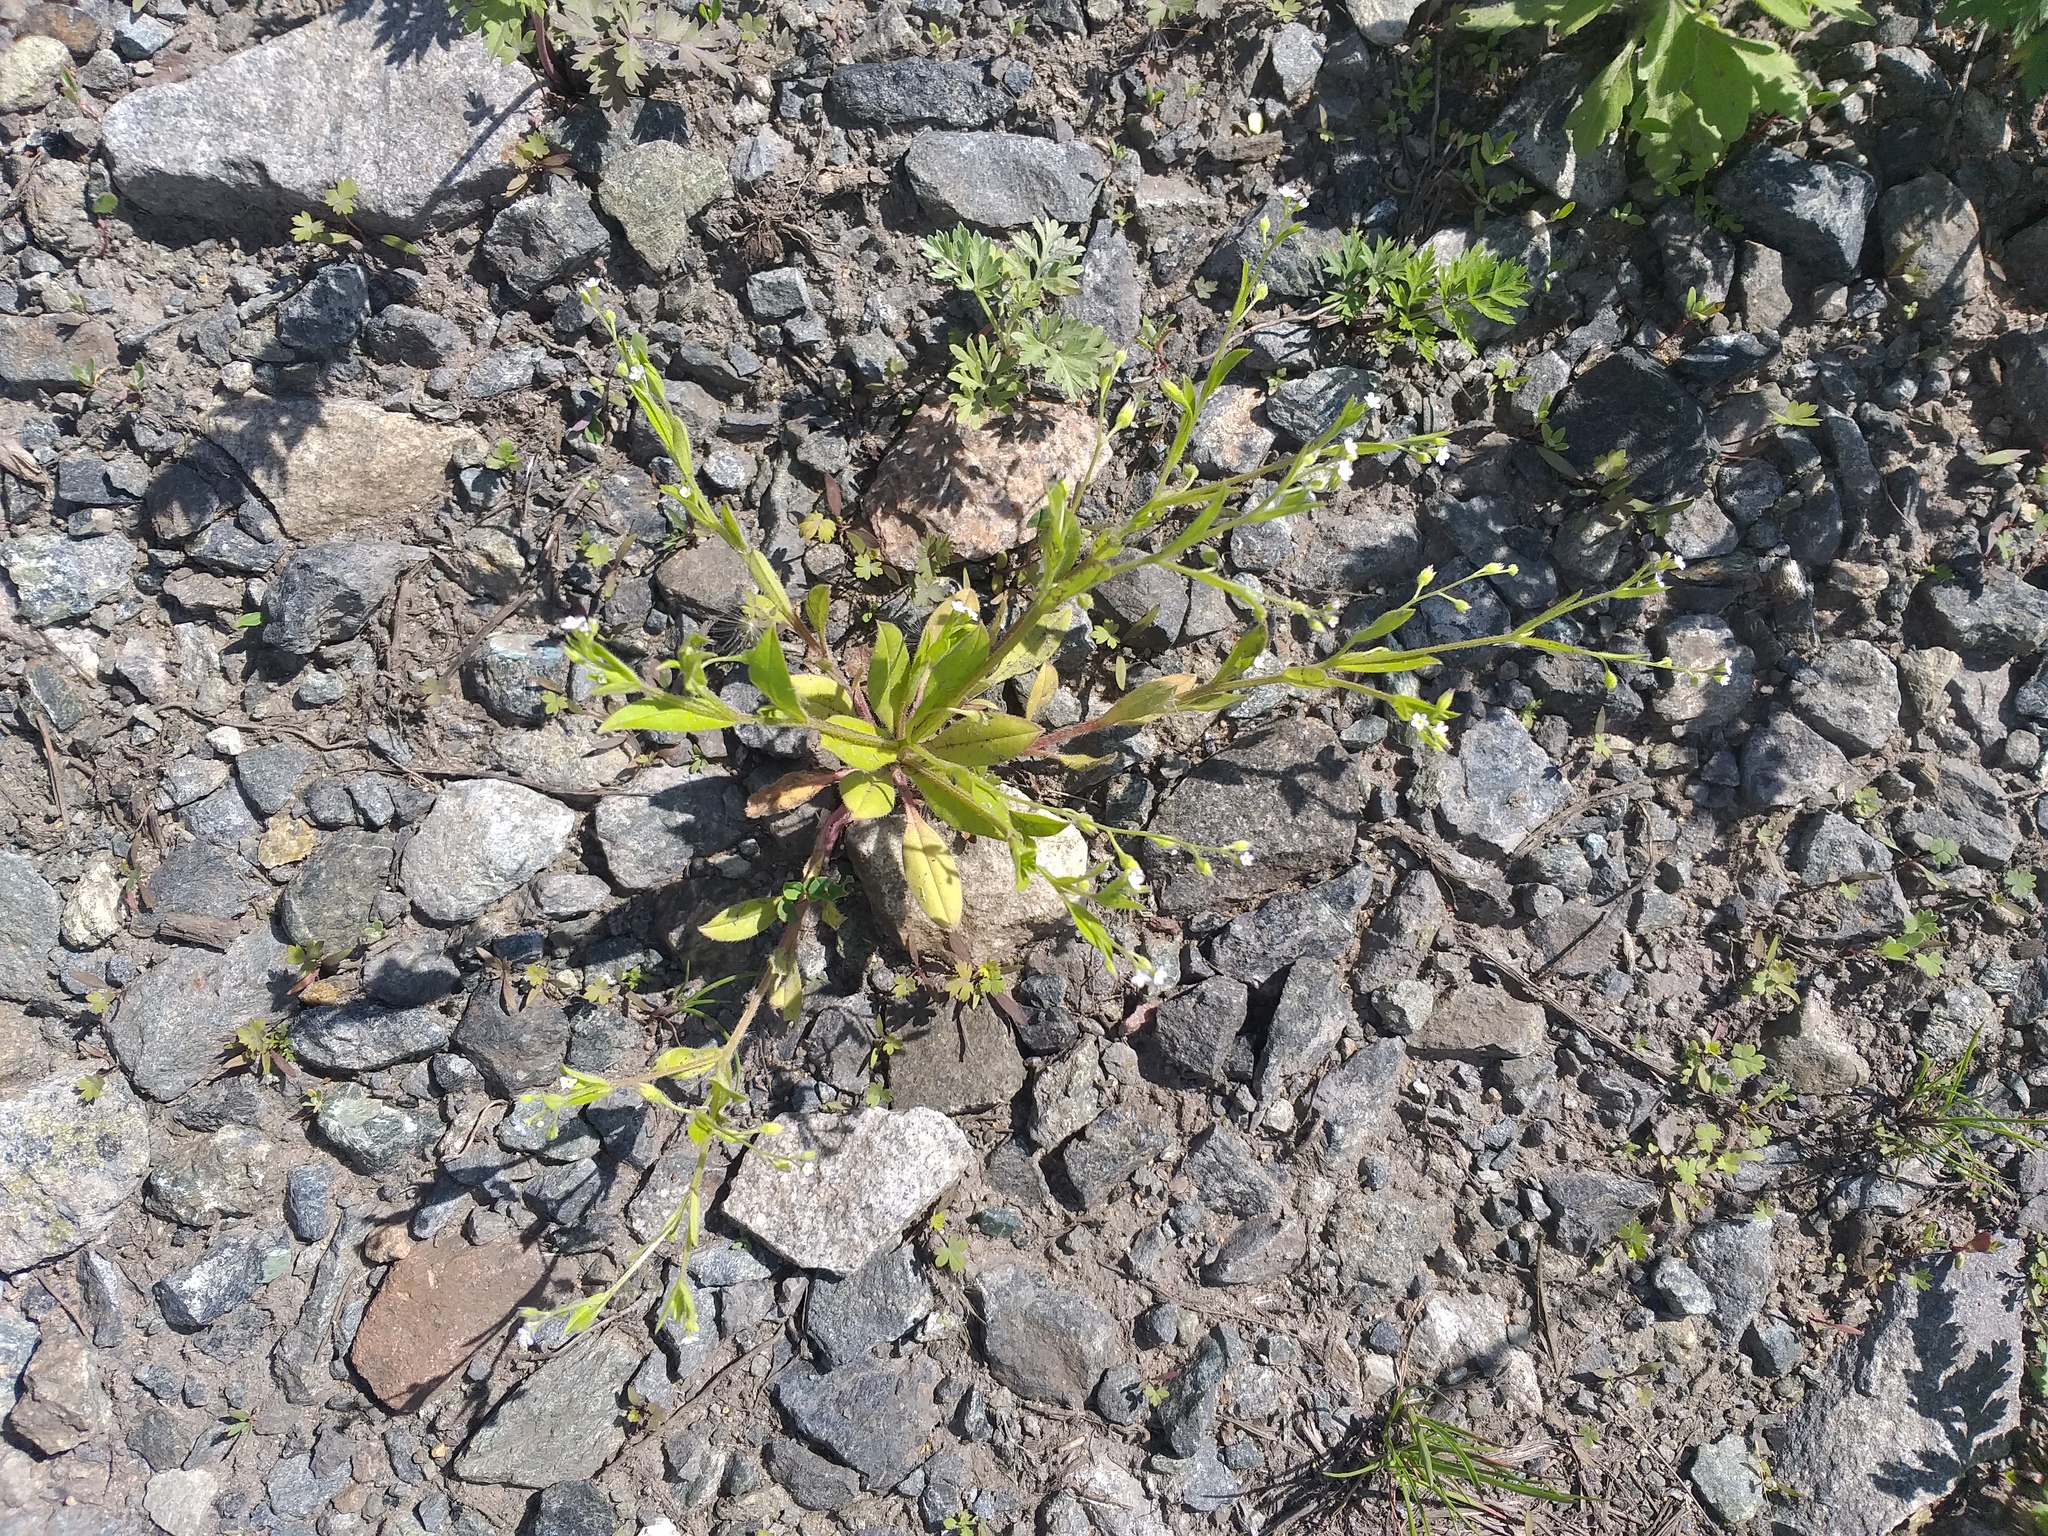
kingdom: Plantae
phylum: Tracheophyta
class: Magnoliopsida
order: Boraginales
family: Boraginaceae
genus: Myosotis
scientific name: Myosotis sparsiflora
